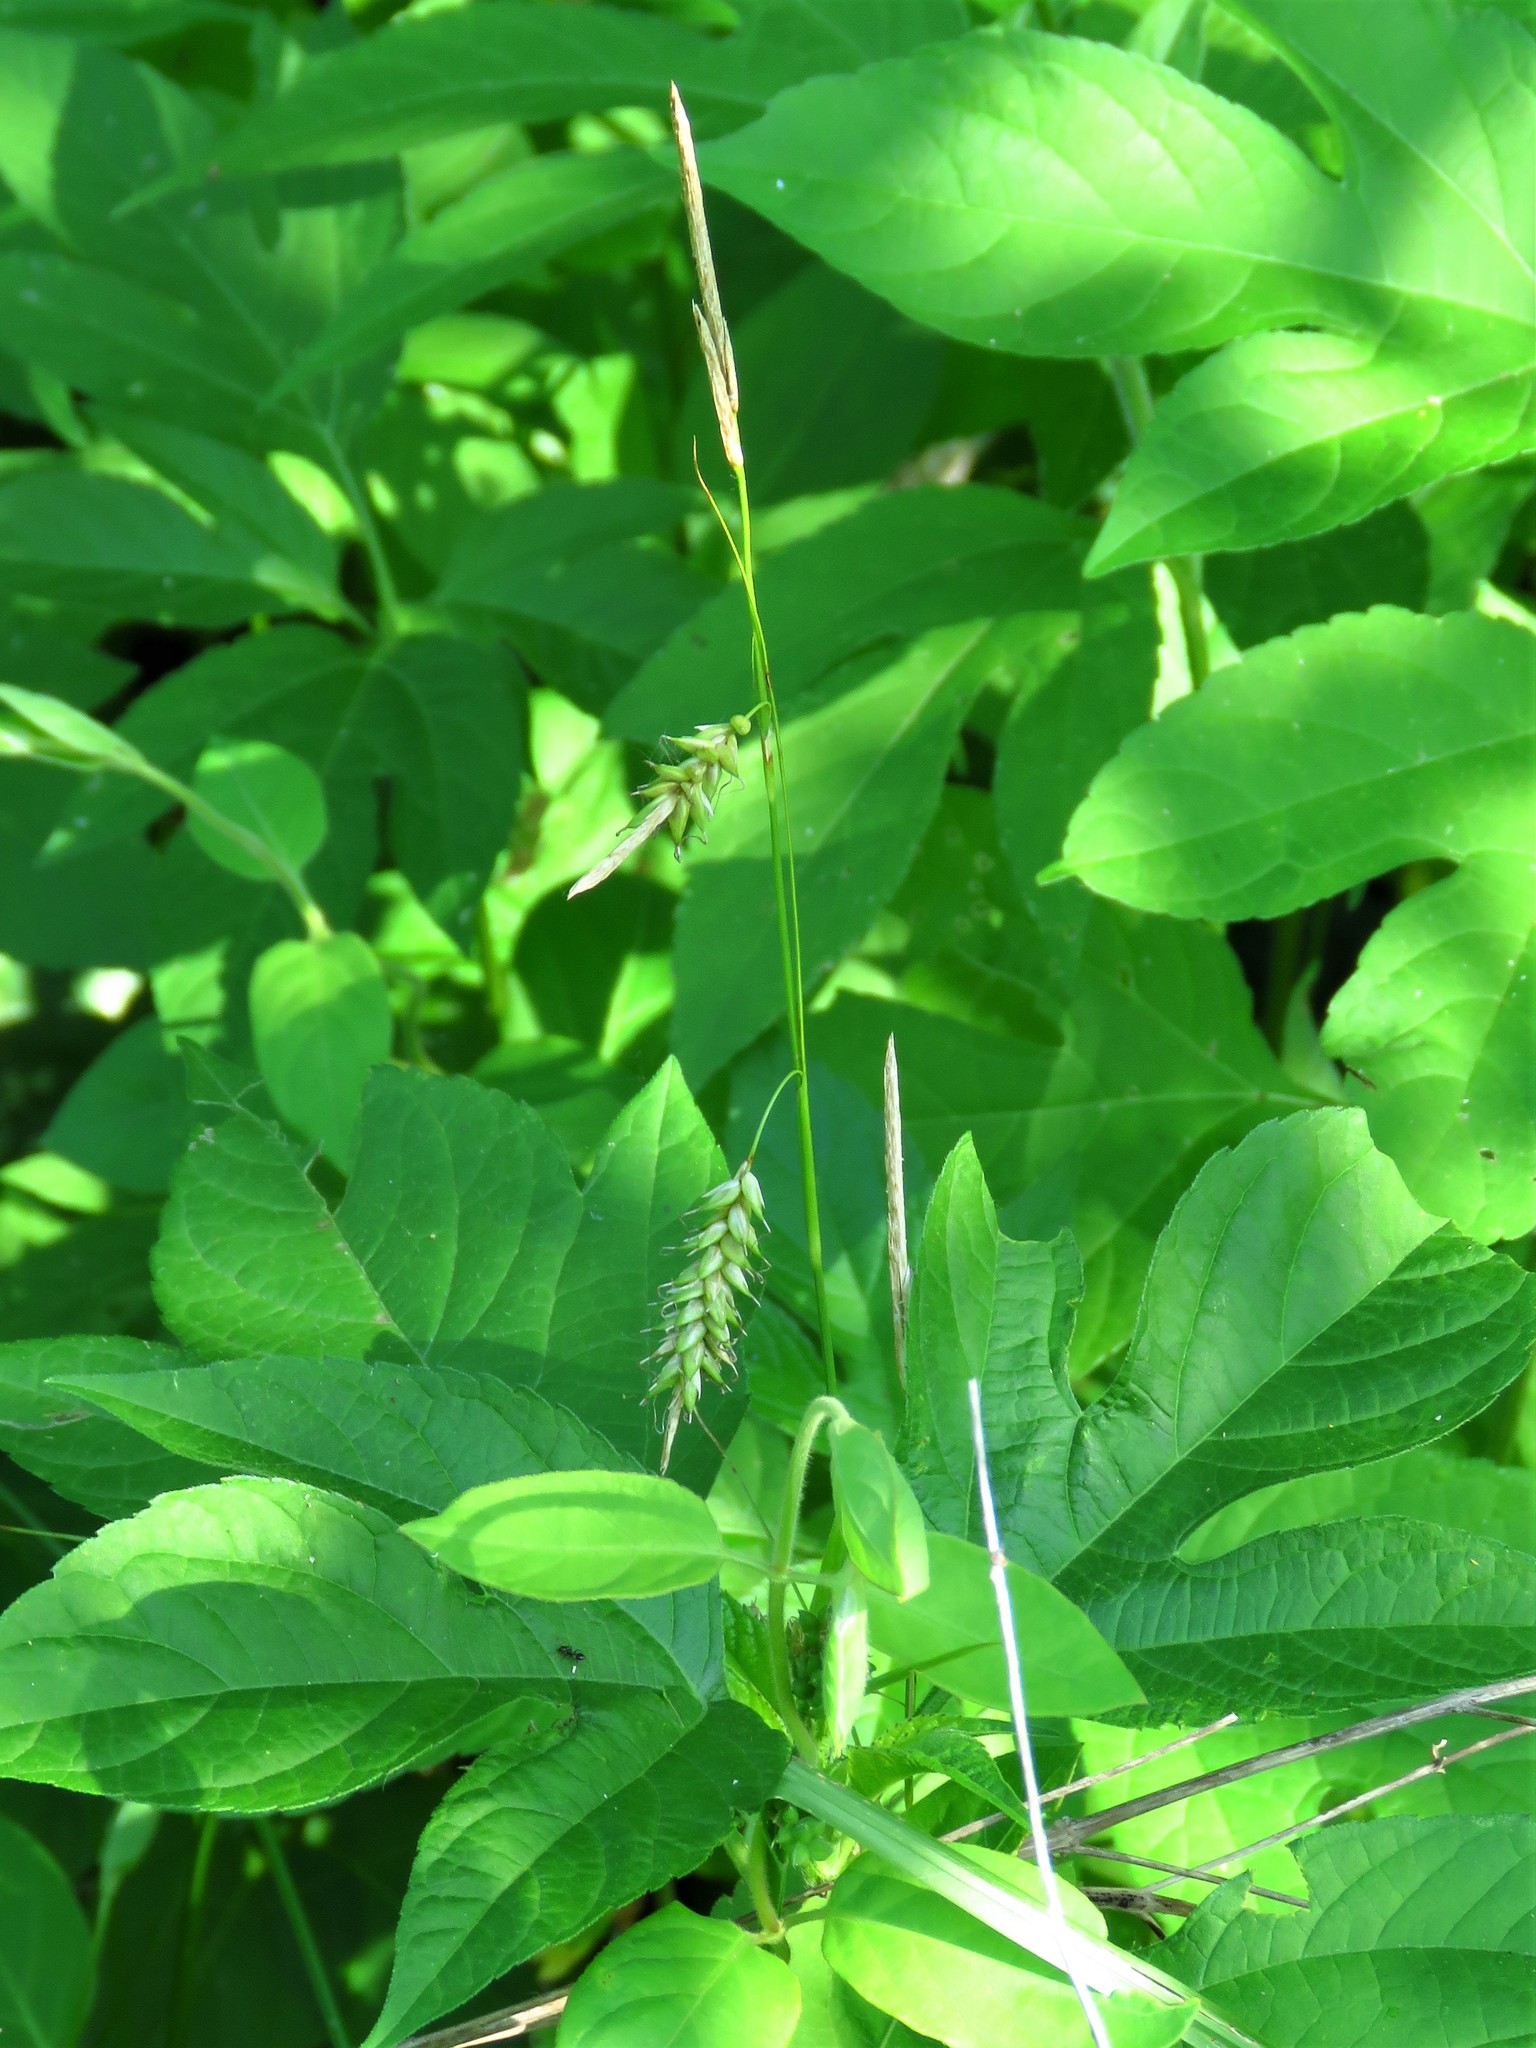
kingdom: Plantae
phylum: Tracheophyta
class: Liliopsida
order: Poales
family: Cyperaceae
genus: Carex
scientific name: Carex cherokeensis
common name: Cherokee sedge
